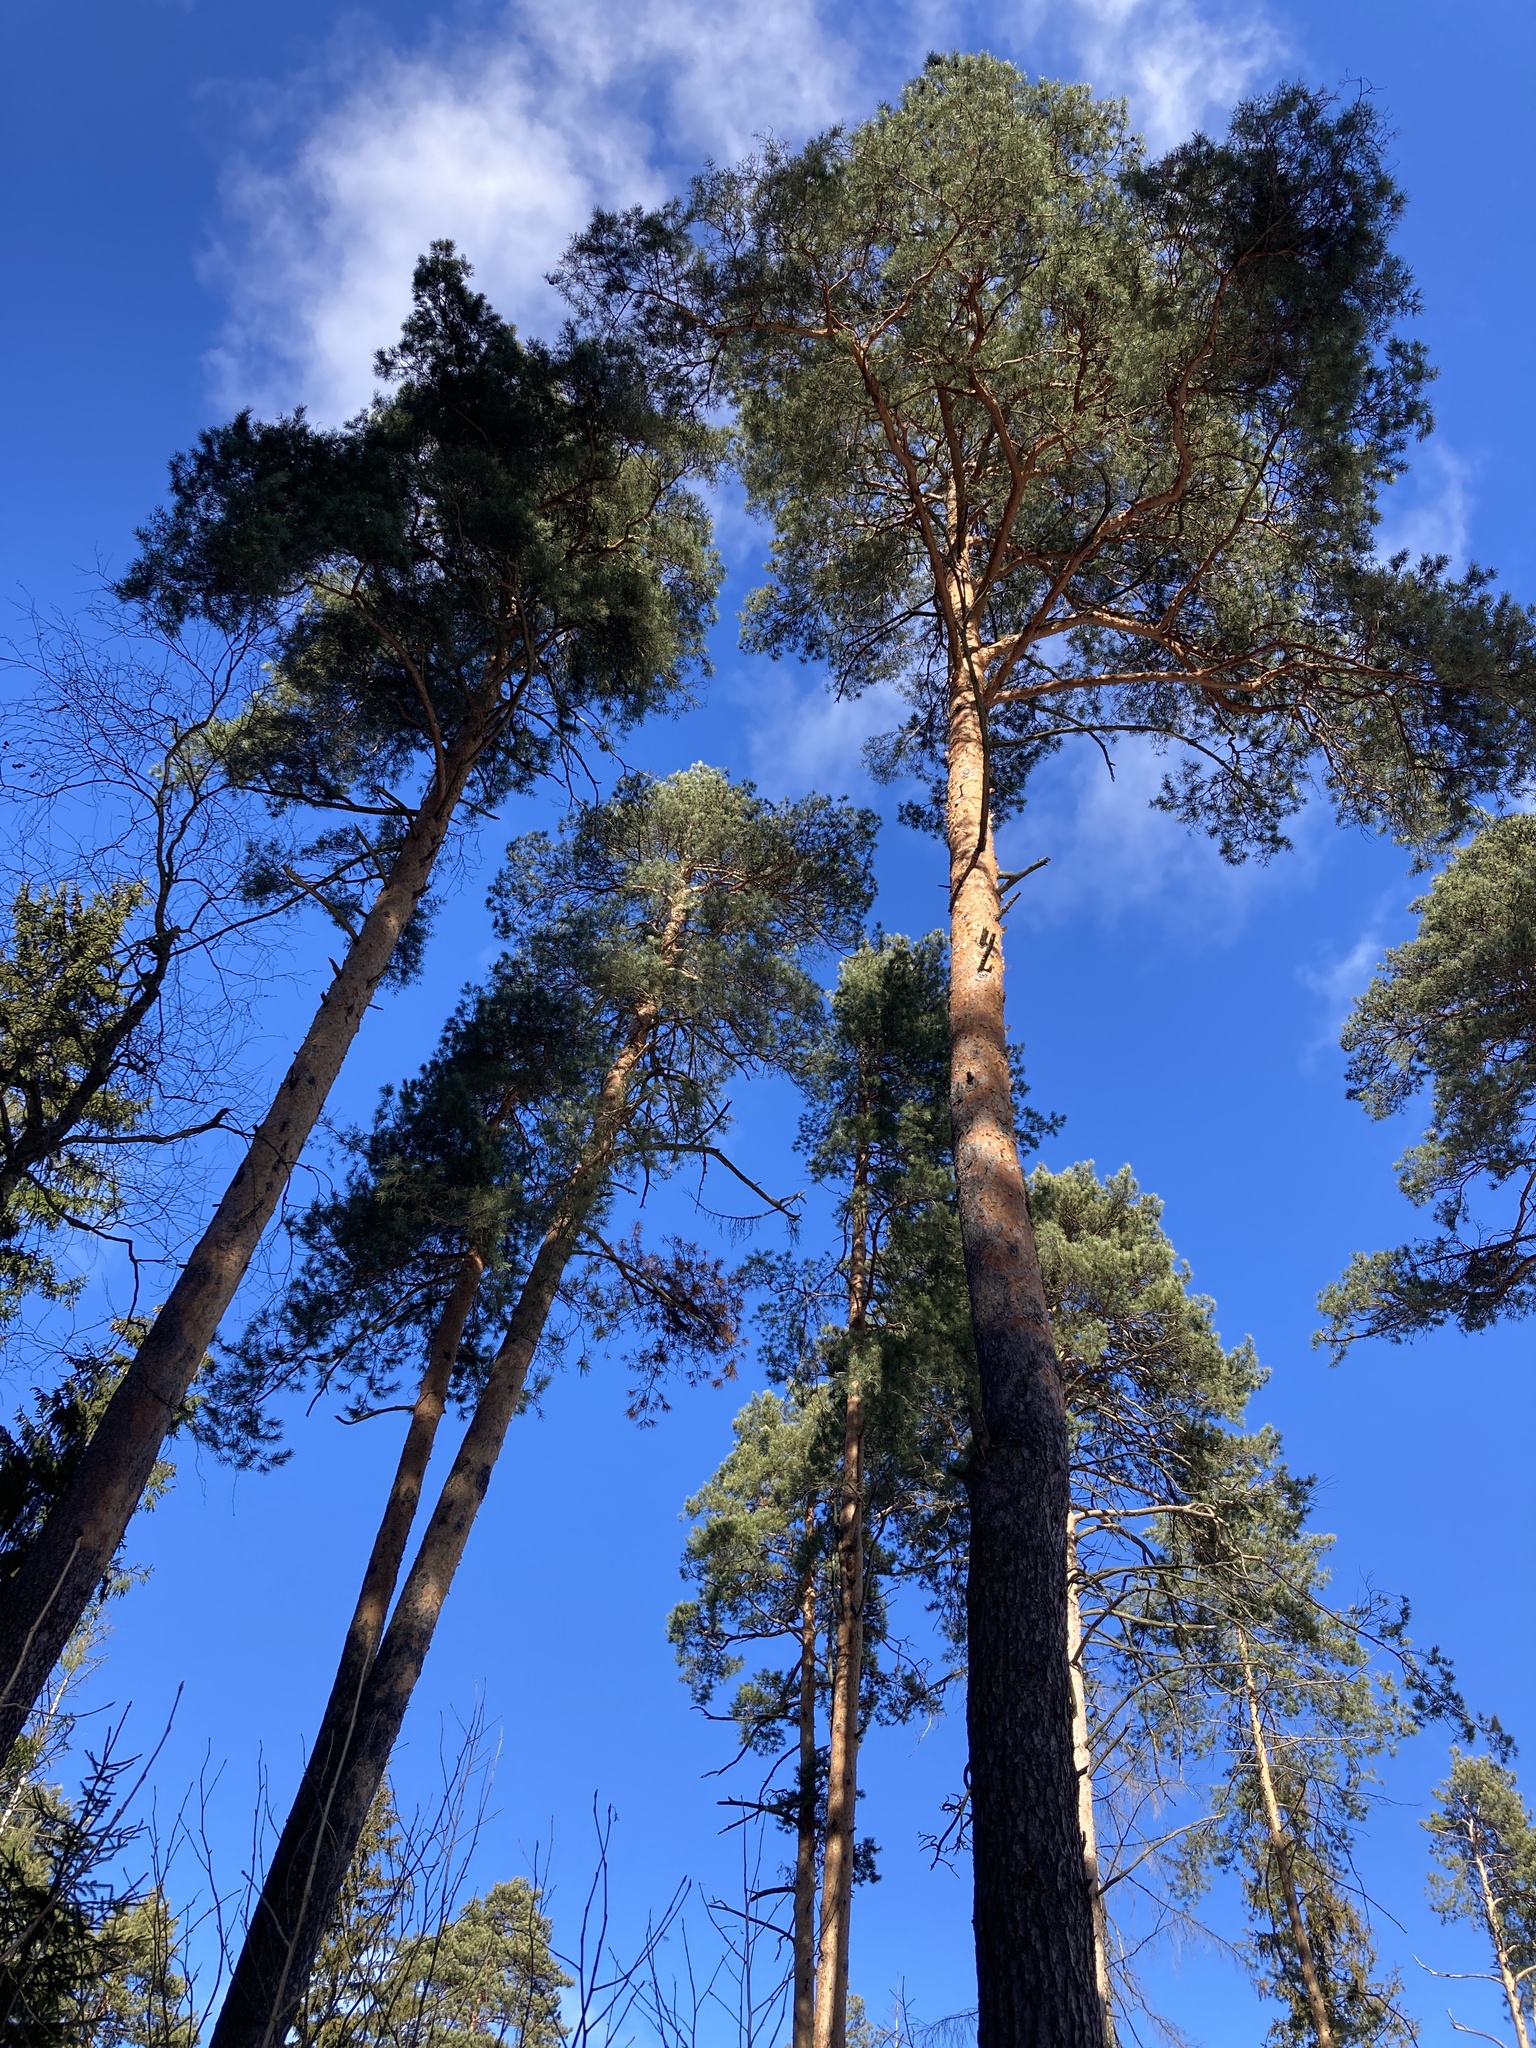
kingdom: Plantae
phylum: Tracheophyta
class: Pinopsida
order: Pinales
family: Pinaceae
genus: Pinus
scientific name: Pinus sylvestris
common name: Scots pine
